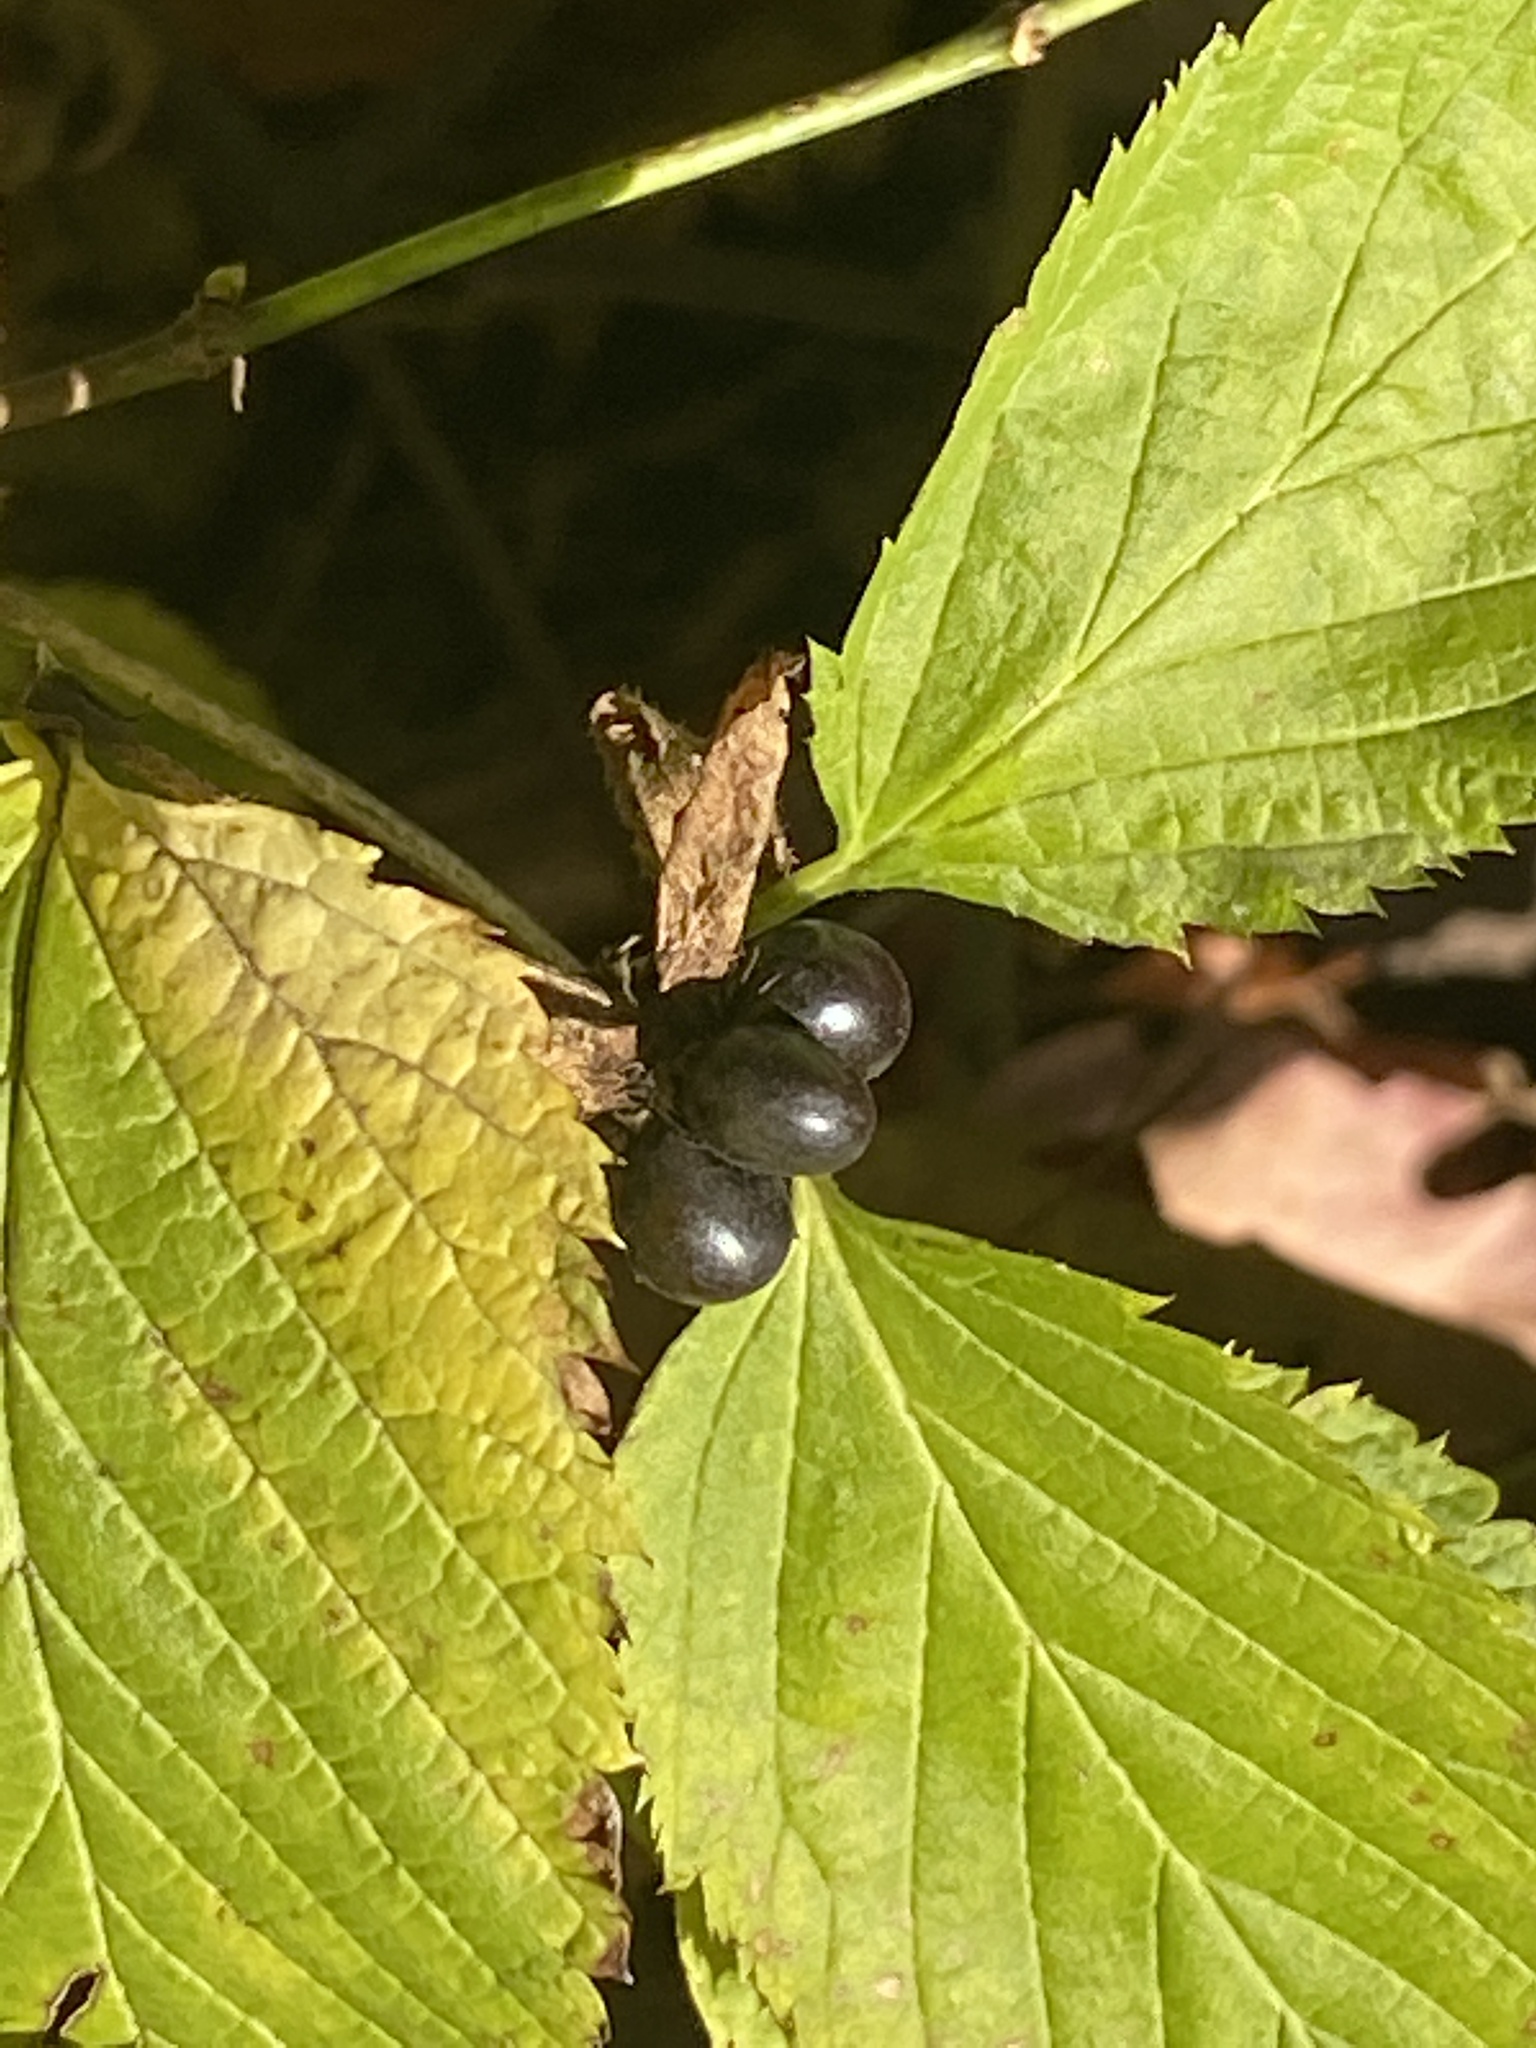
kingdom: Plantae
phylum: Tracheophyta
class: Magnoliopsida
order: Rosales
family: Rosaceae
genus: Rhodotypos
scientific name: Rhodotypos scandens
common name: Jetbead
